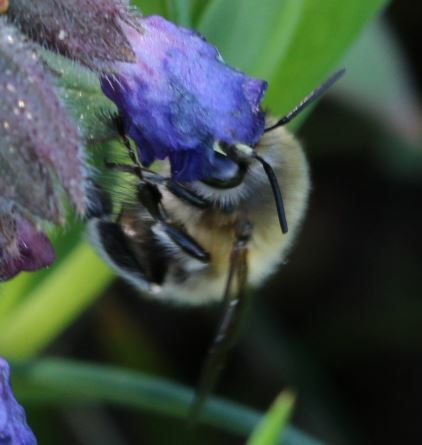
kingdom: Animalia
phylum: Arthropoda
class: Insecta
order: Hymenoptera
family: Apidae
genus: Anthophora
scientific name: Anthophora plumipes
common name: Hairy-footed flower bee
